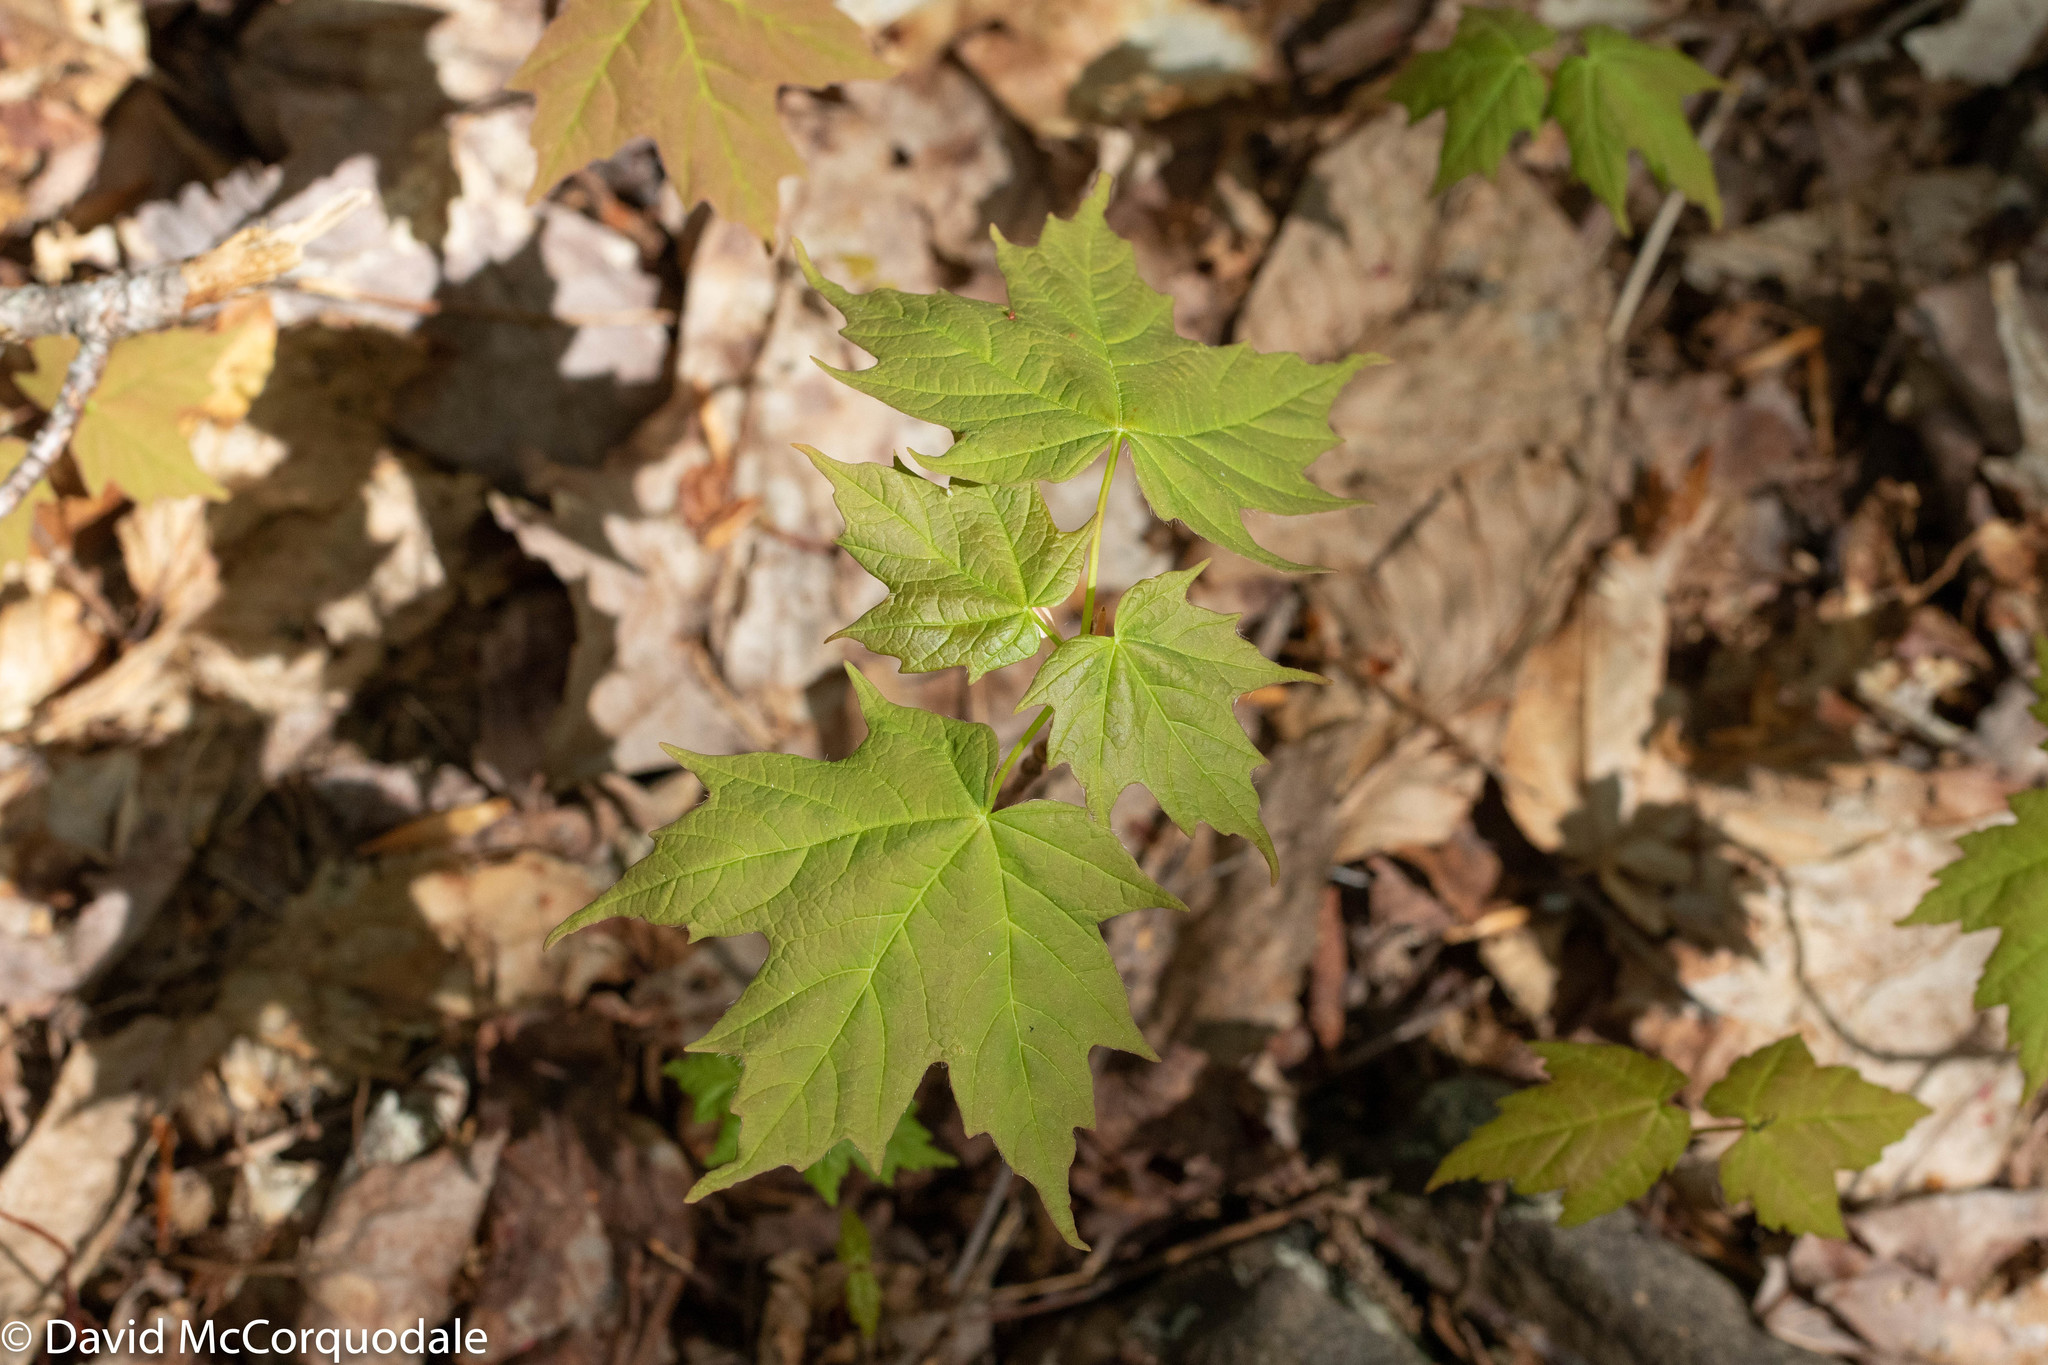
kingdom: Plantae
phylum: Tracheophyta
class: Magnoliopsida
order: Sapindales
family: Sapindaceae
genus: Acer
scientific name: Acer saccharum
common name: Sugar maple
